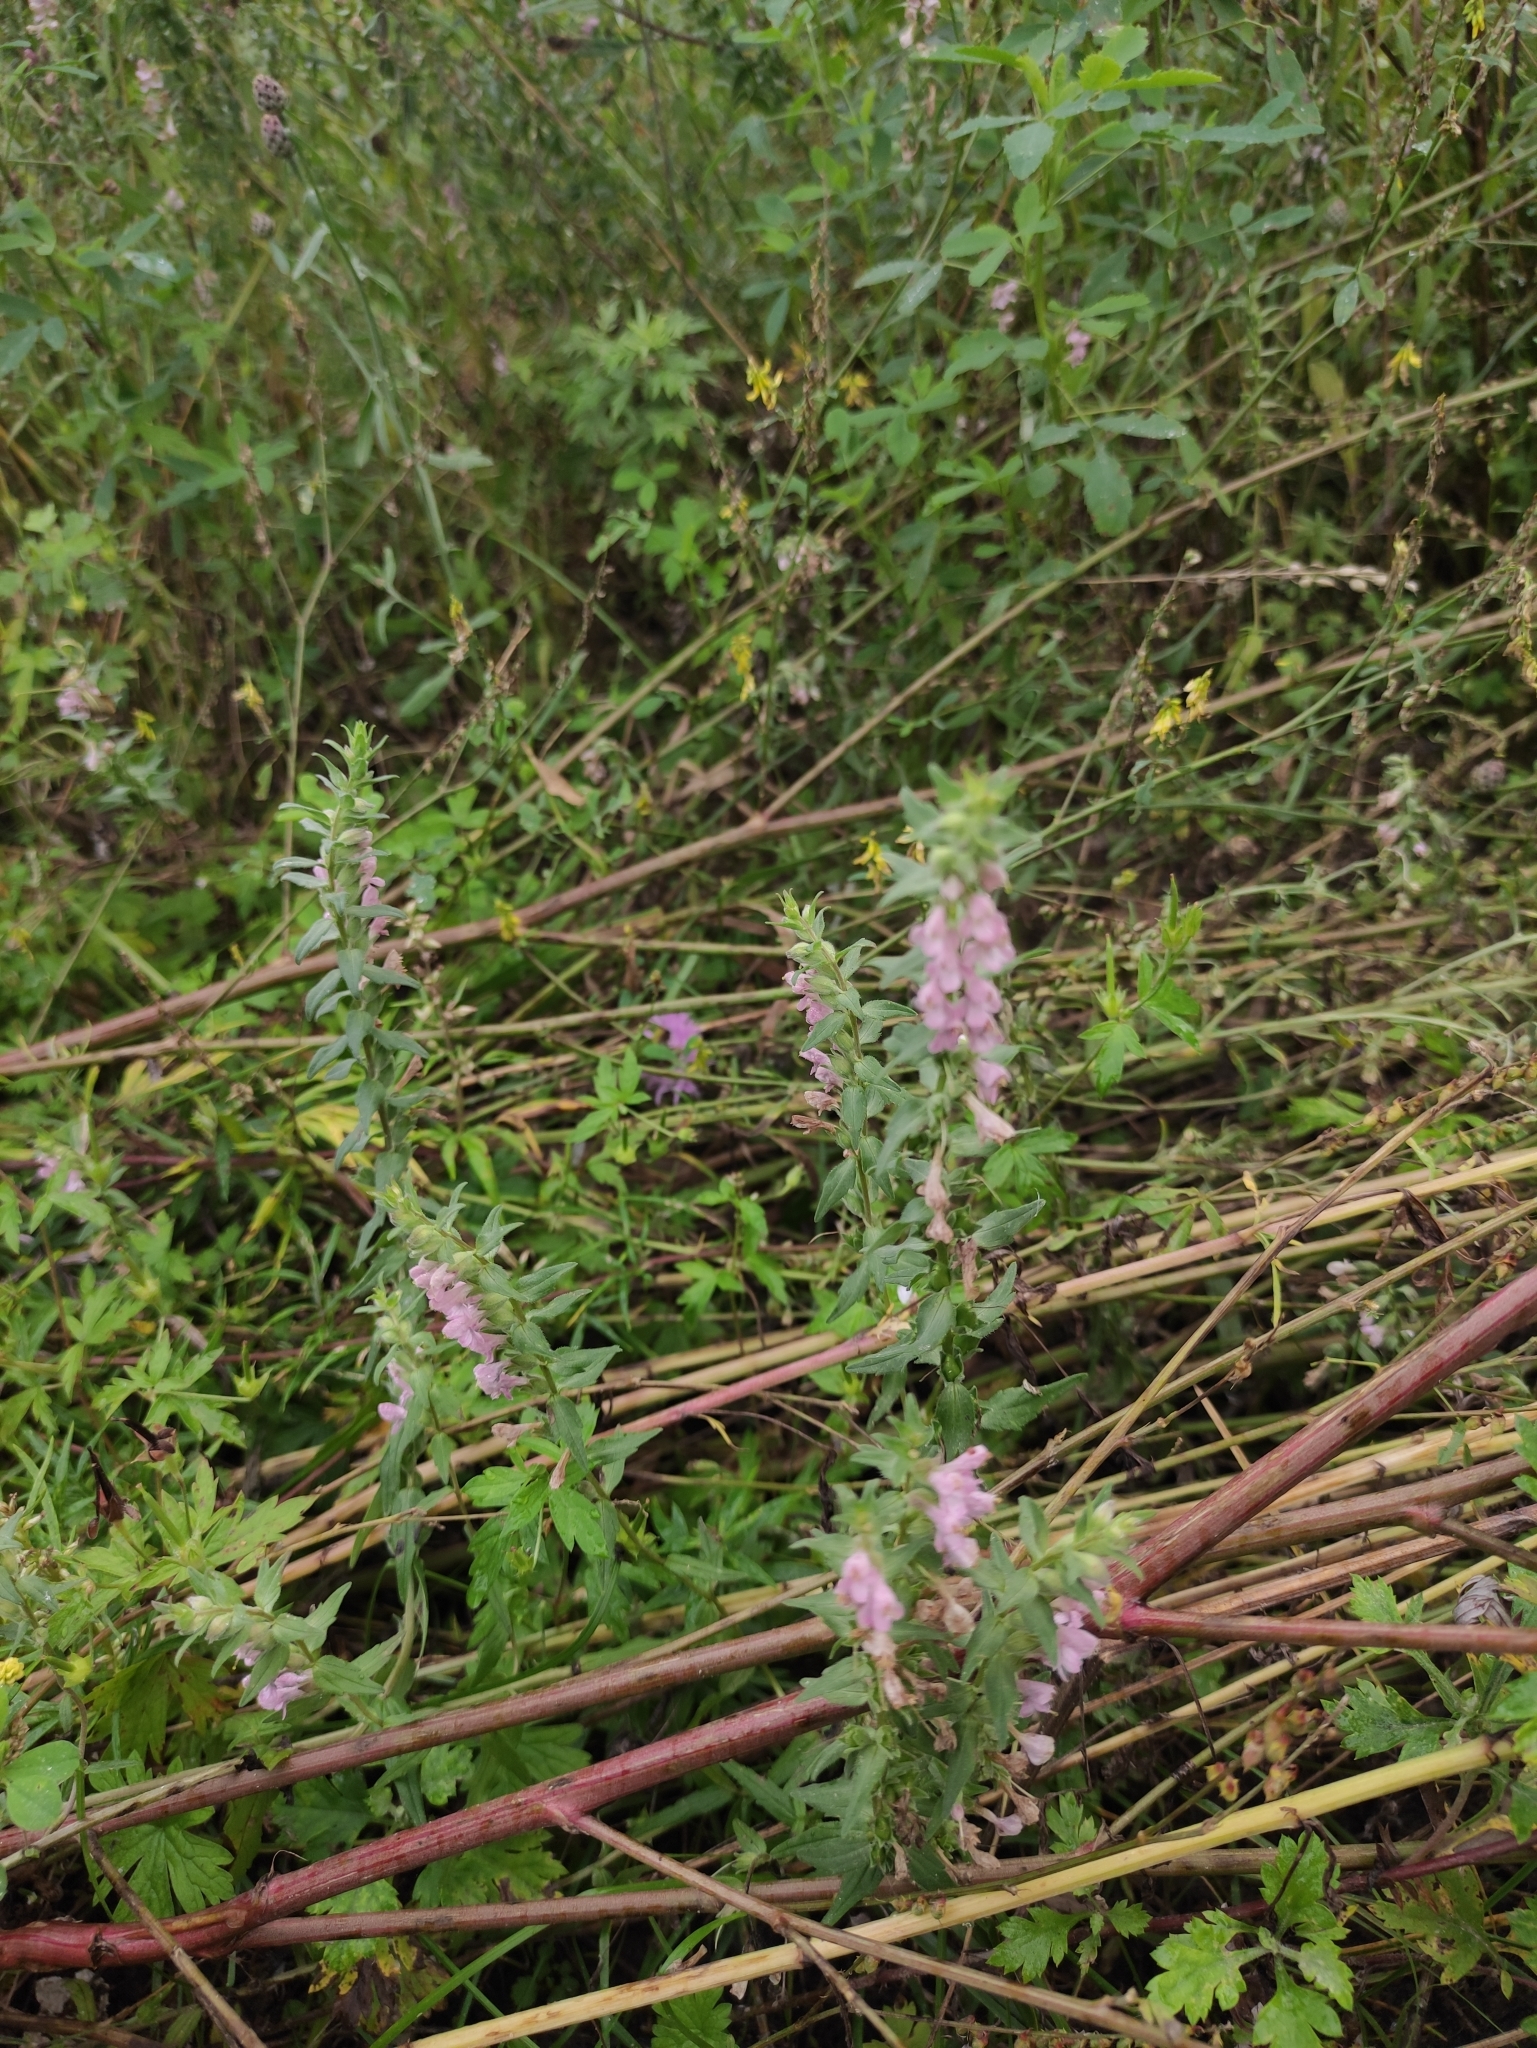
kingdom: Plantae
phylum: Tracheophyta
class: Magnoliopsida
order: Lamiales
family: Orobanchaceae
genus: Odontites
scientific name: Odontites vulgaris
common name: Broomrape
